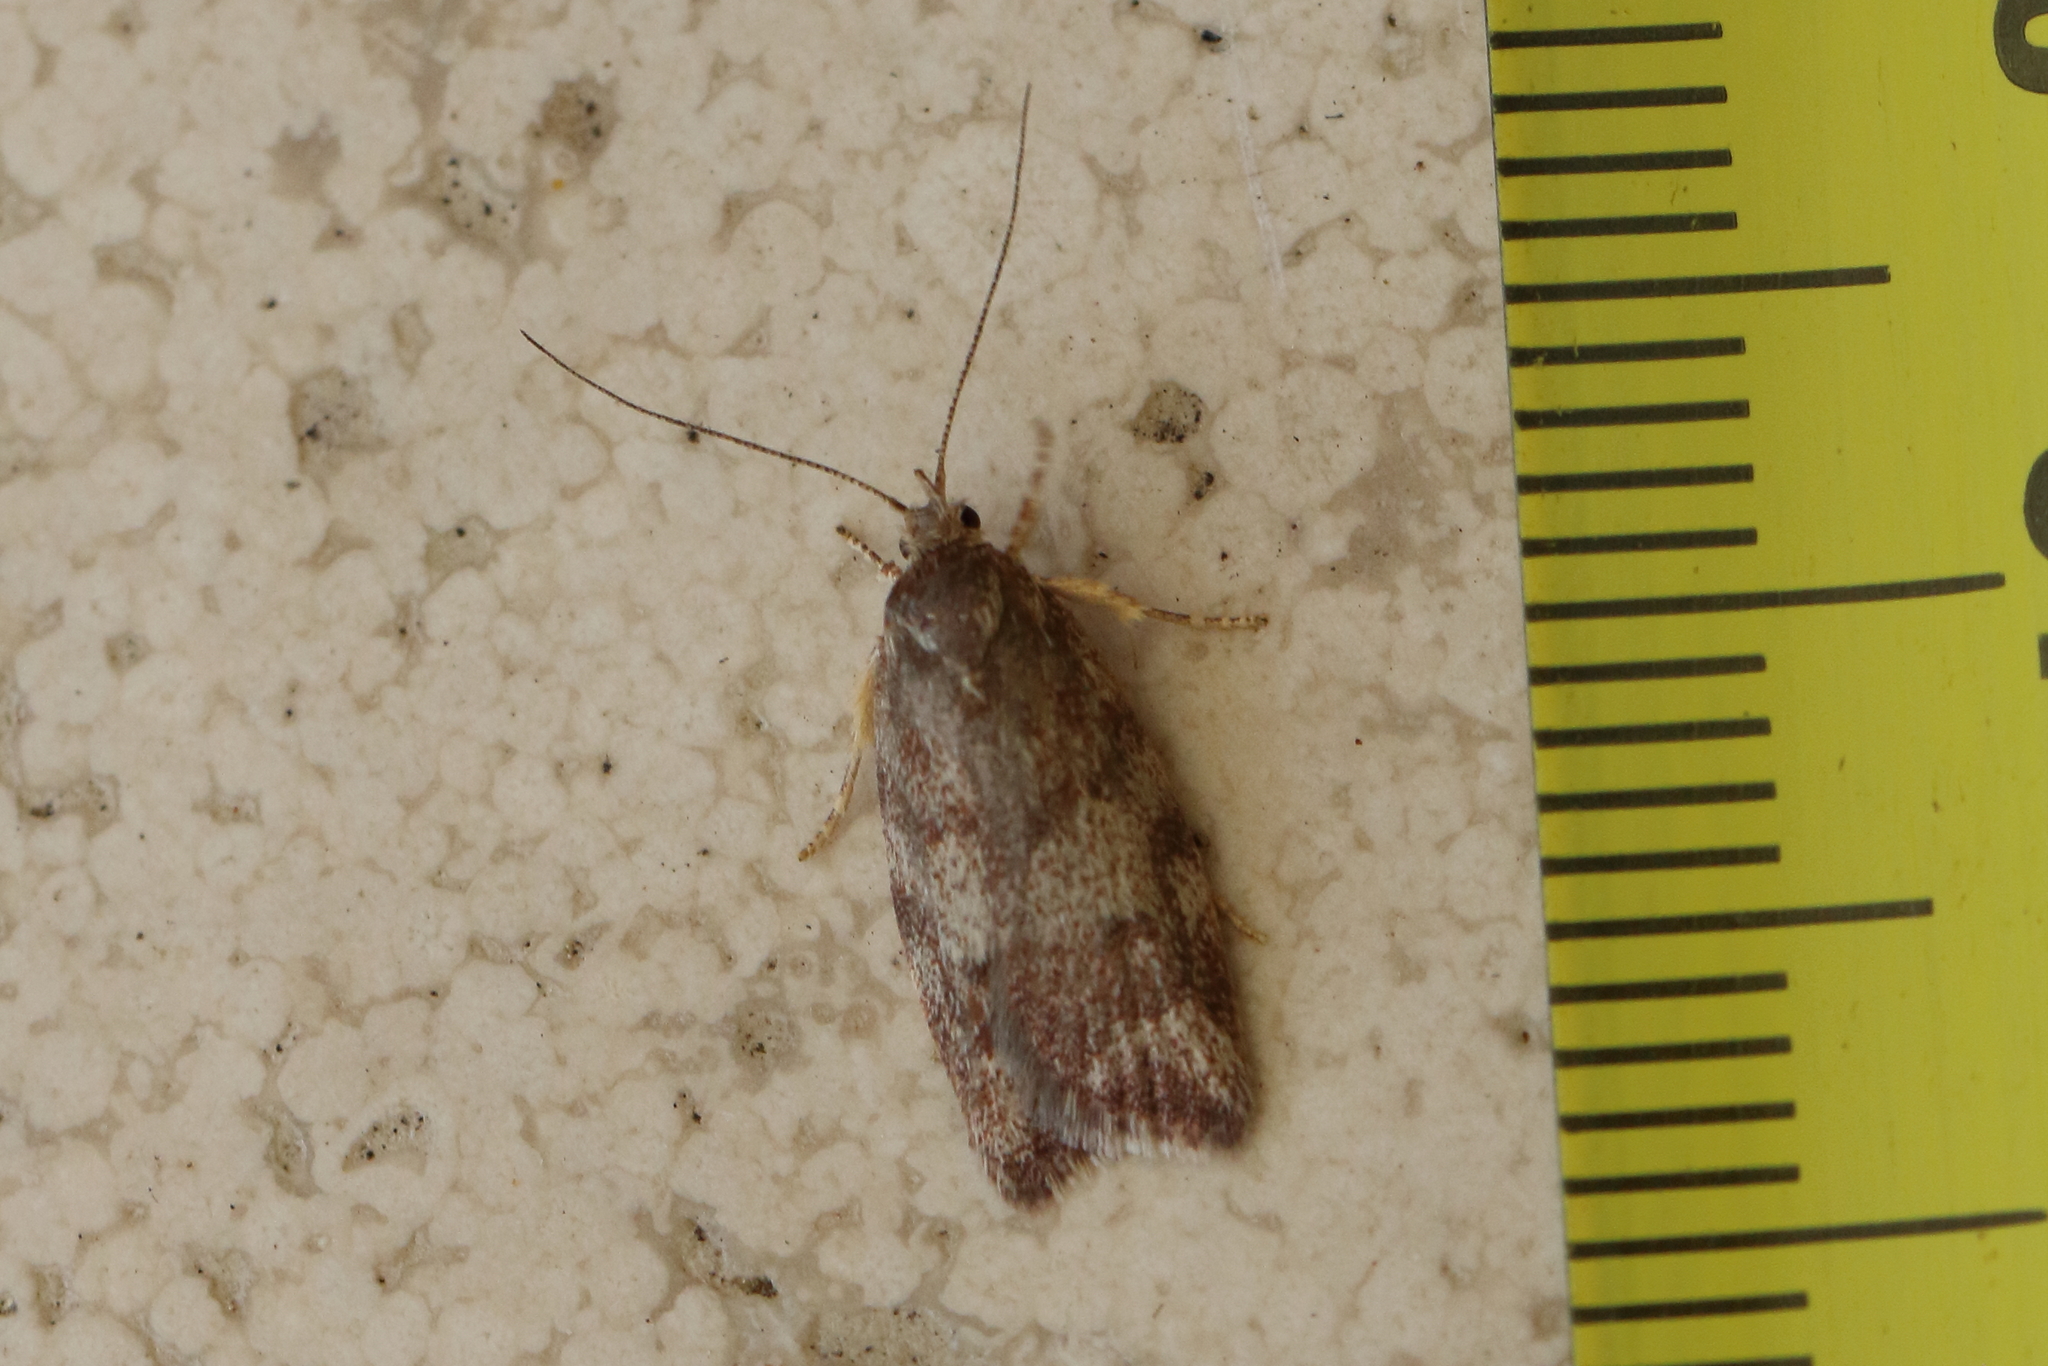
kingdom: Animalia
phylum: Arthropoda
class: Insecta
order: Lepidoptera
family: Oecophoridae
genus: Syringoseca
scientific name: Syringoseca mimica
